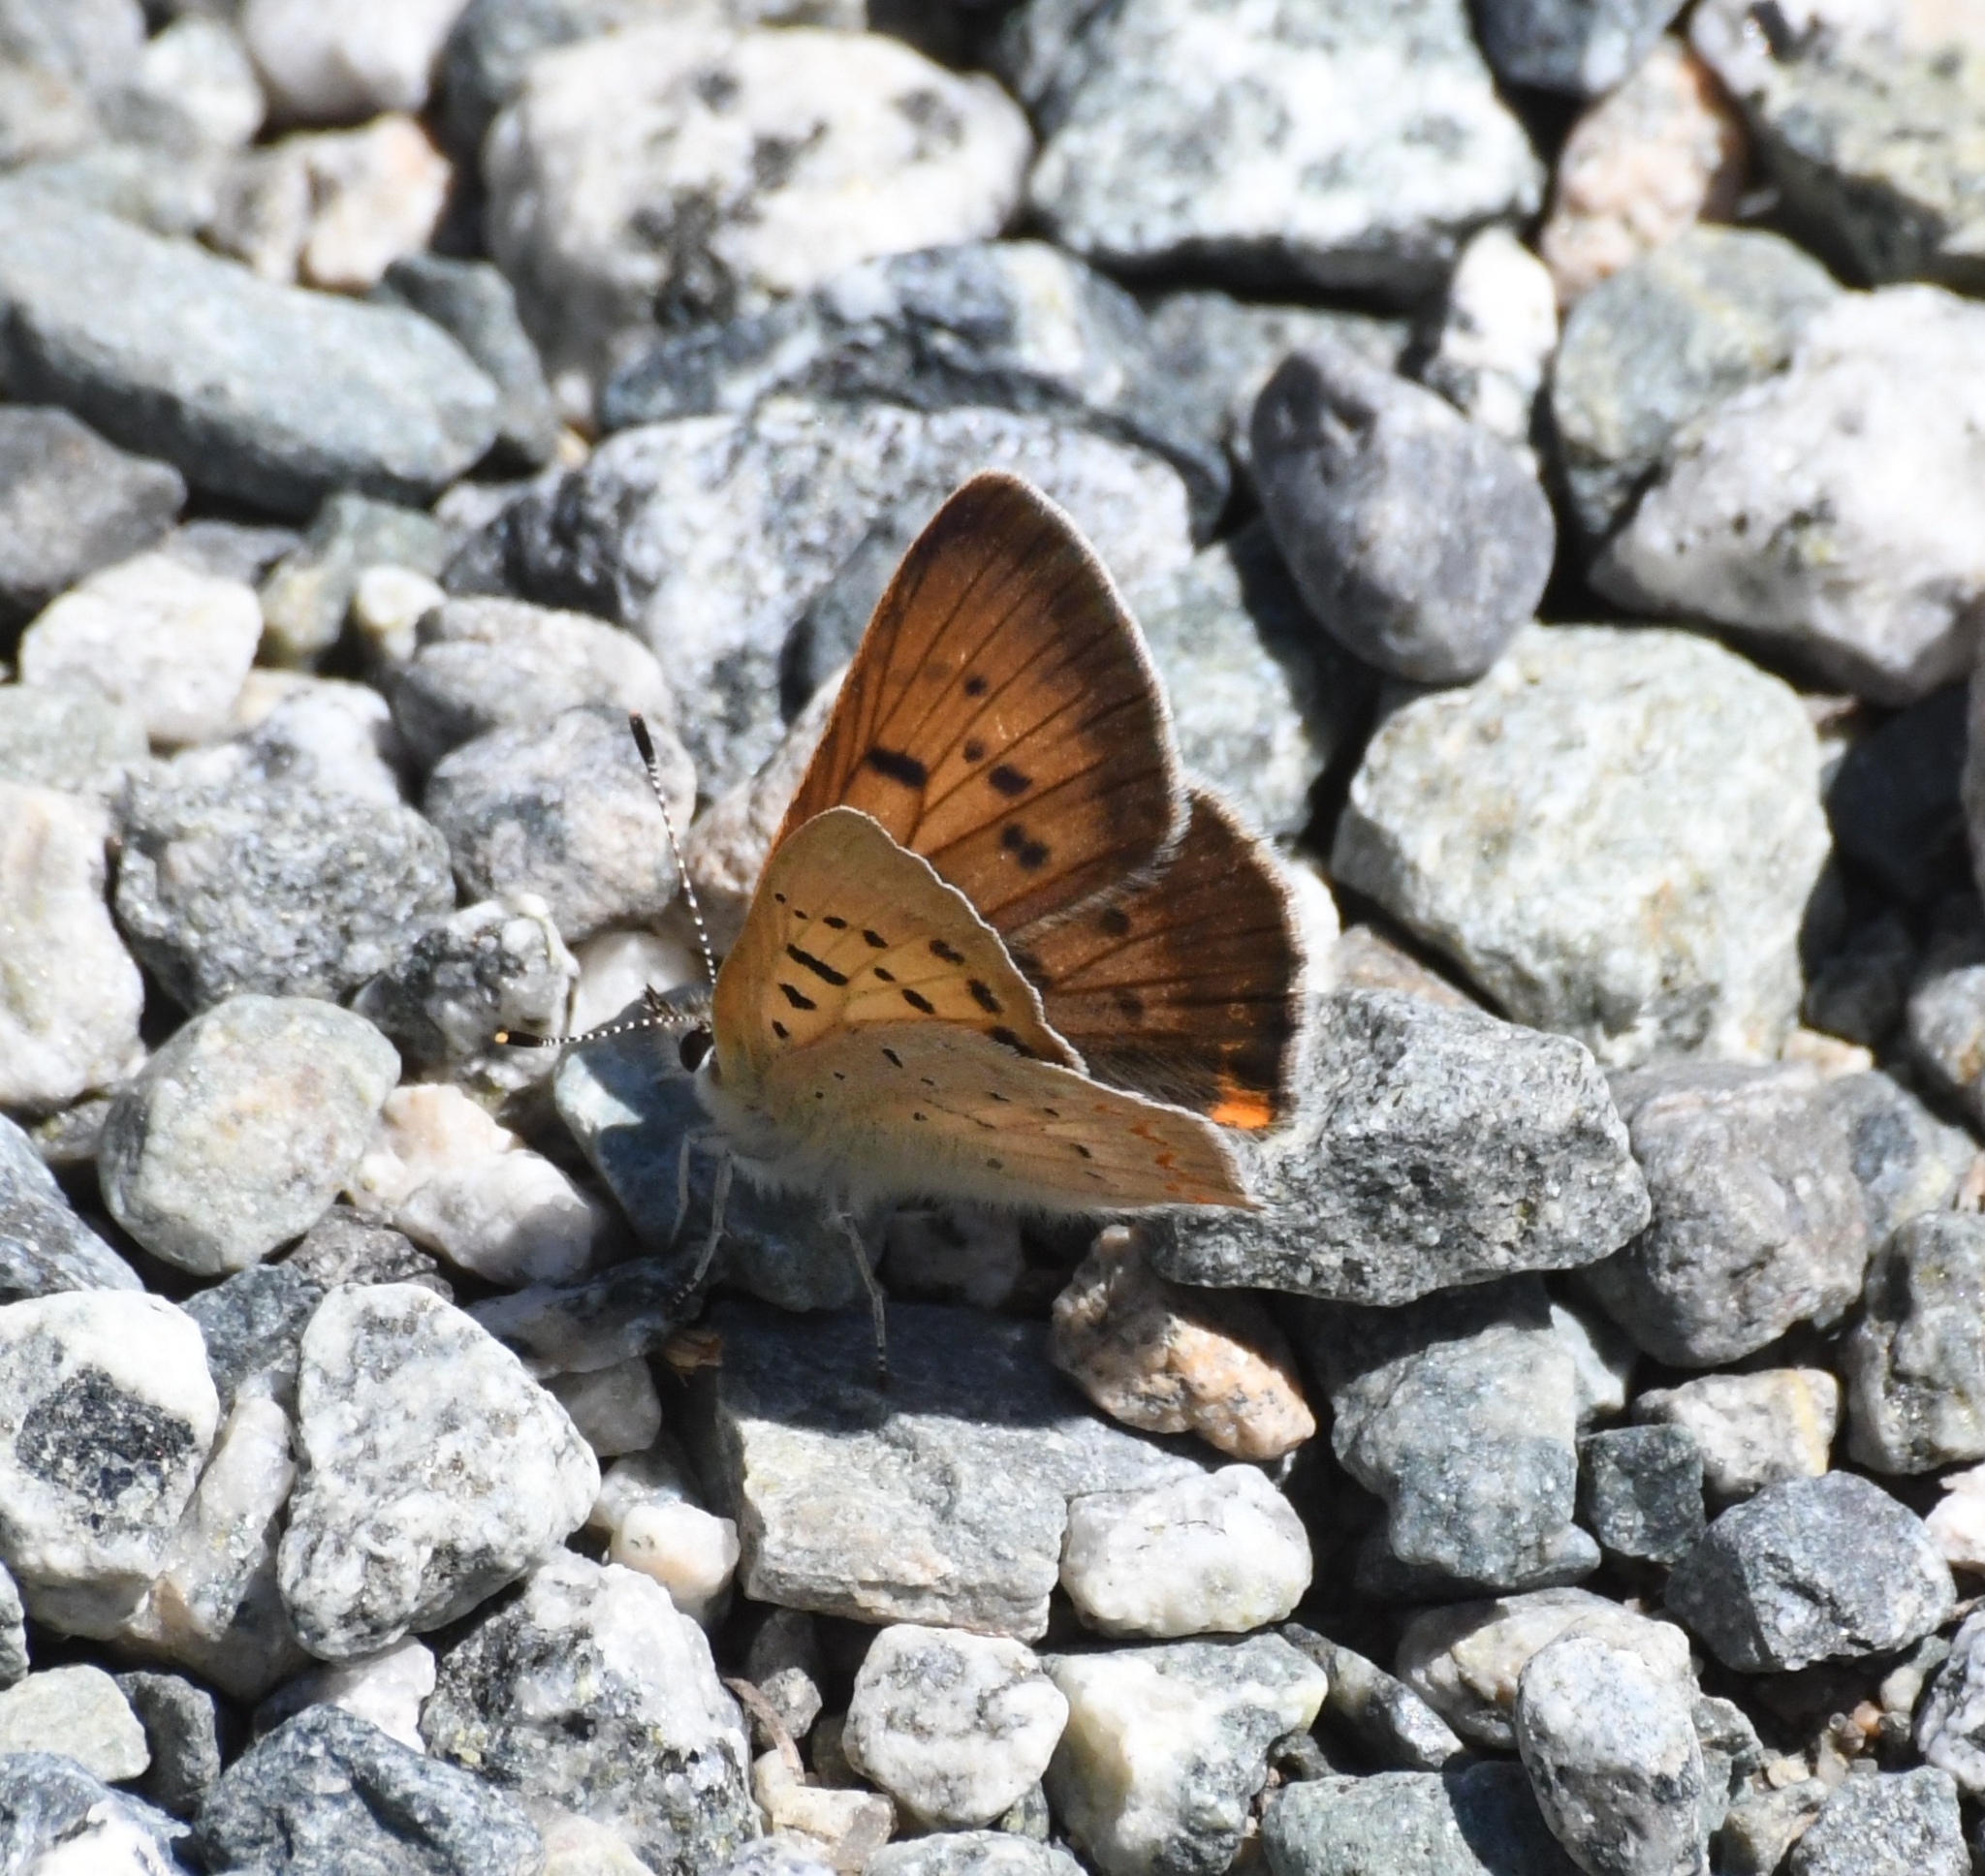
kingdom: Animalia
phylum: Arthropoda
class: Insecta
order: Lepidoptera
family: Lycaenidae
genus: Tharsalea
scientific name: Tharsalea helloides
